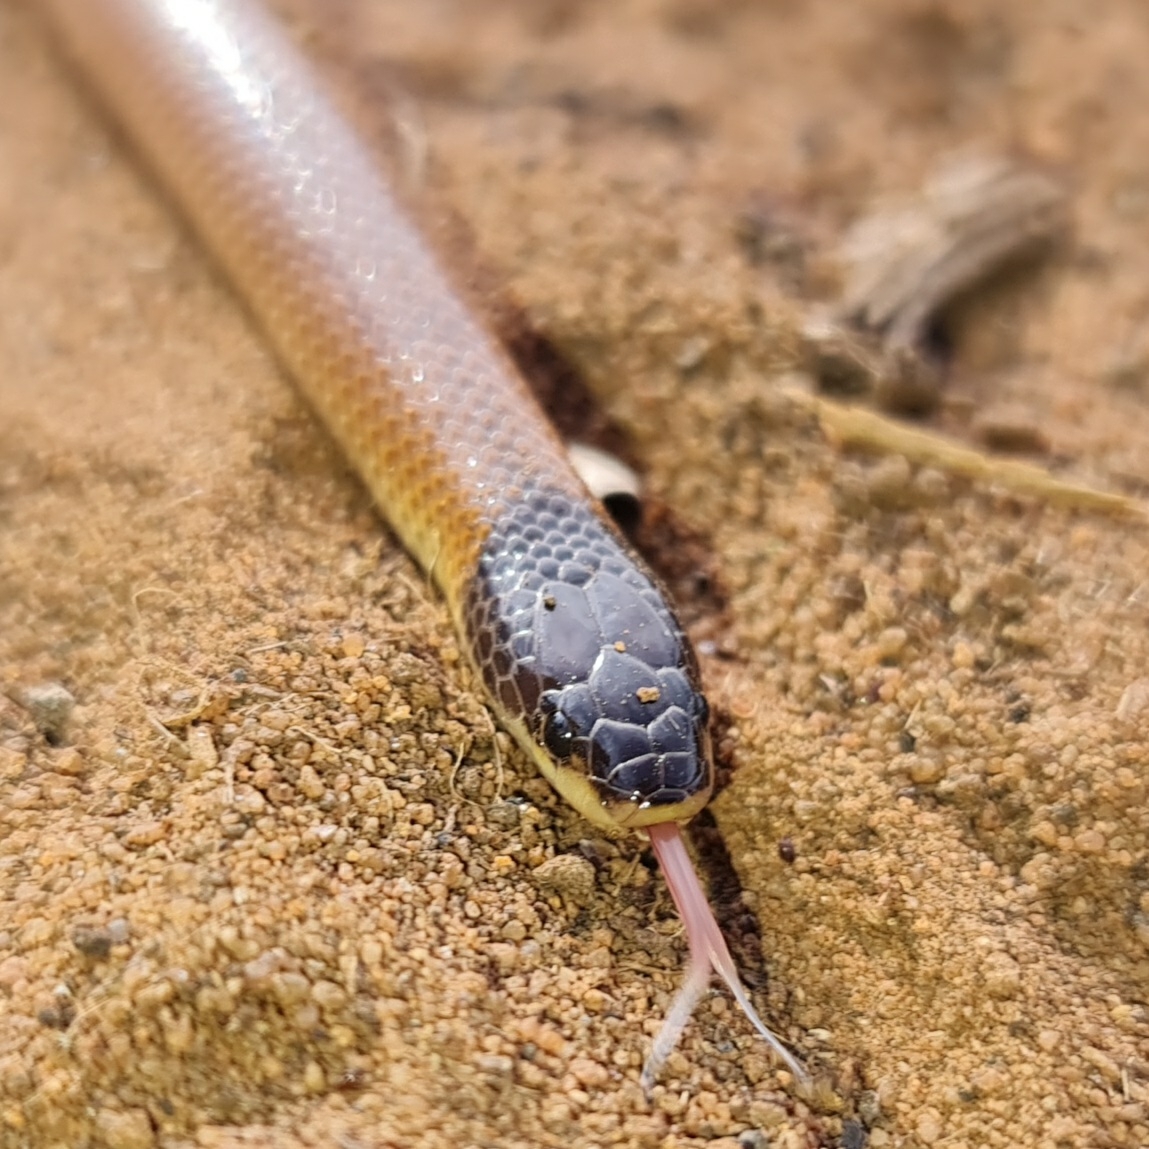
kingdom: Animalia
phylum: Chordata
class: Squamata
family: Elapidae
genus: Suta
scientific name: Suta nigriceps
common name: Mallee black-backed snake
